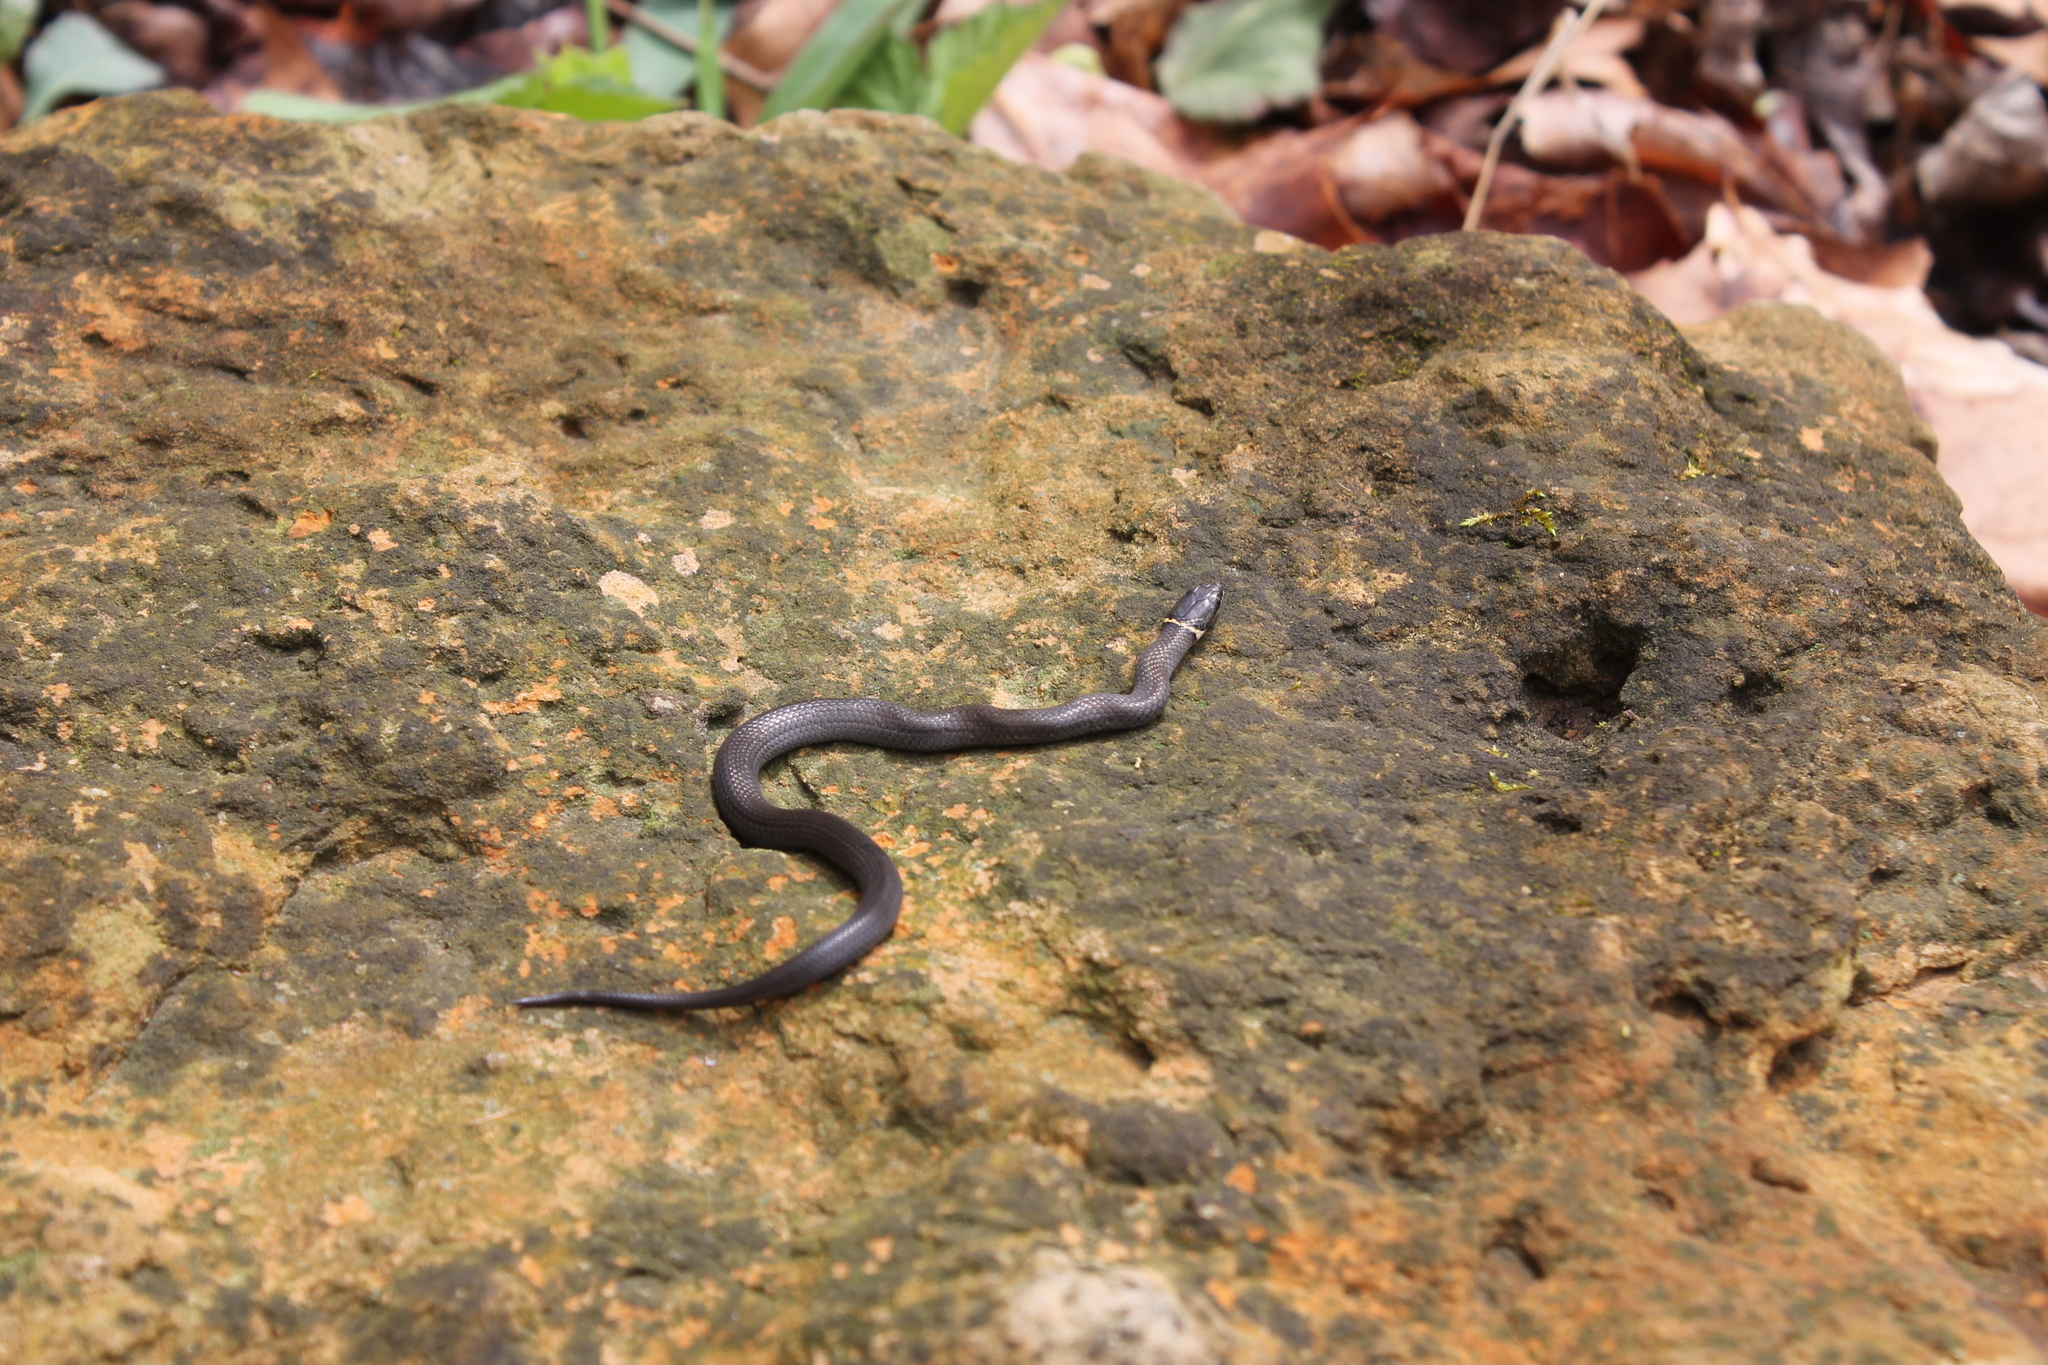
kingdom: Animalia
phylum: Chordata
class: Squamata
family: Colubridae
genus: Diadophis
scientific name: Diadophis punctatus
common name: Ringneck snake
